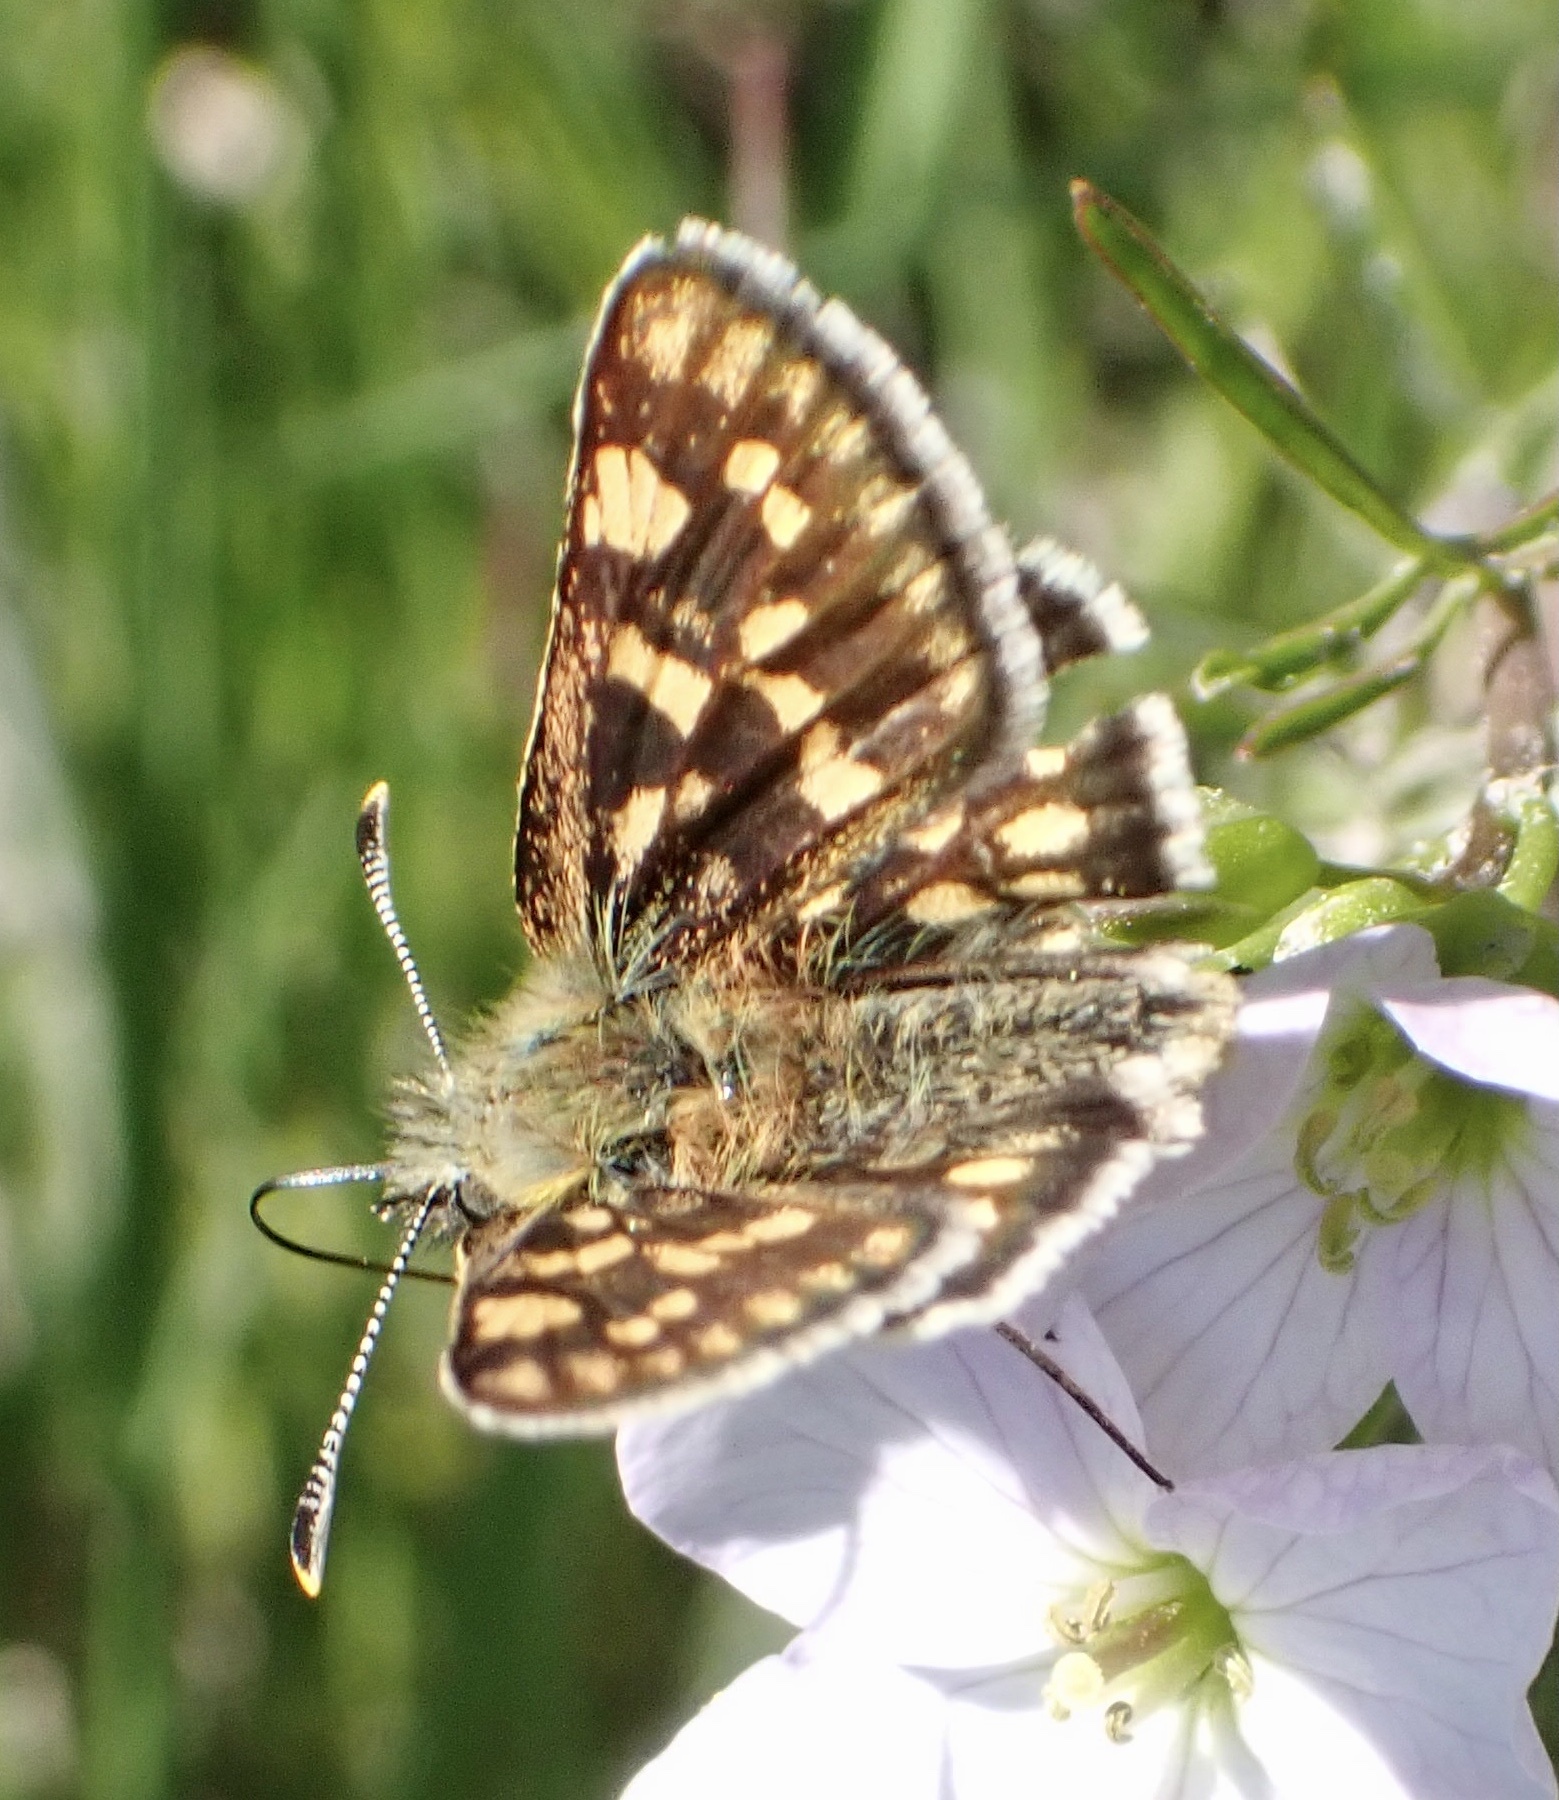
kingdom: Animalia
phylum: Arthropoda
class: Insecta
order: Lepidoptera
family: Hesperiidae
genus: Carterocephalus
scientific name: Carterocephalus palaemon
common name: Chequered skipper
